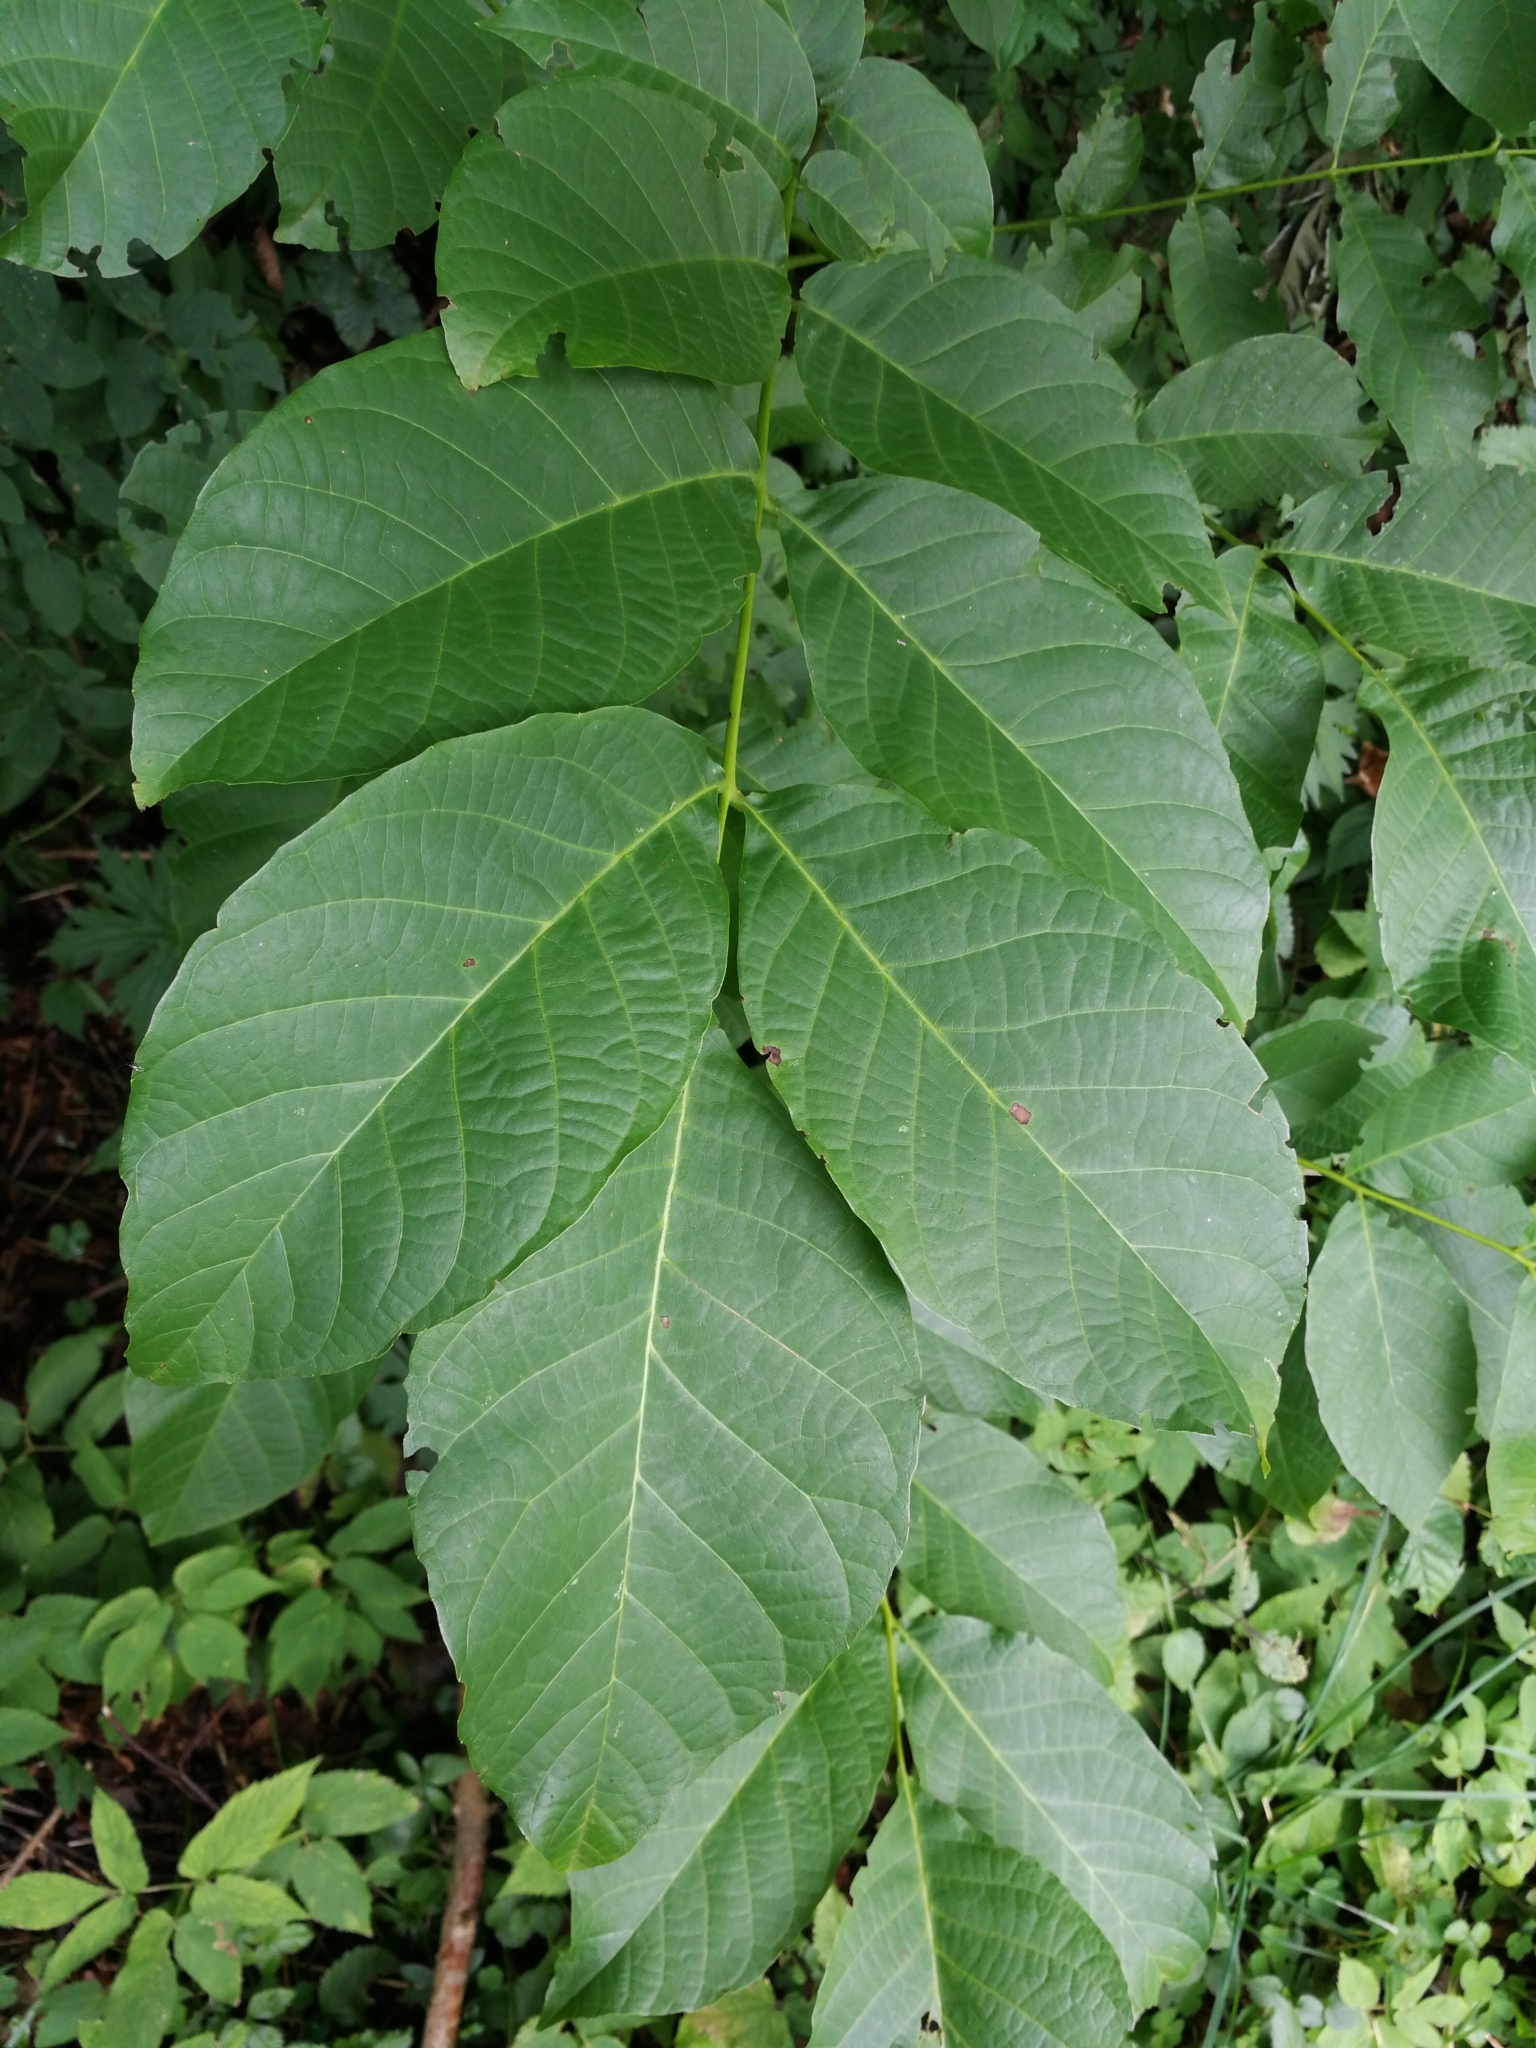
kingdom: Plantae
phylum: Tracheophyta
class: Magnoliopsida
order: Fagales
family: Juglandaceae
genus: Juglans
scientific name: Juglans regia
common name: Walnut
